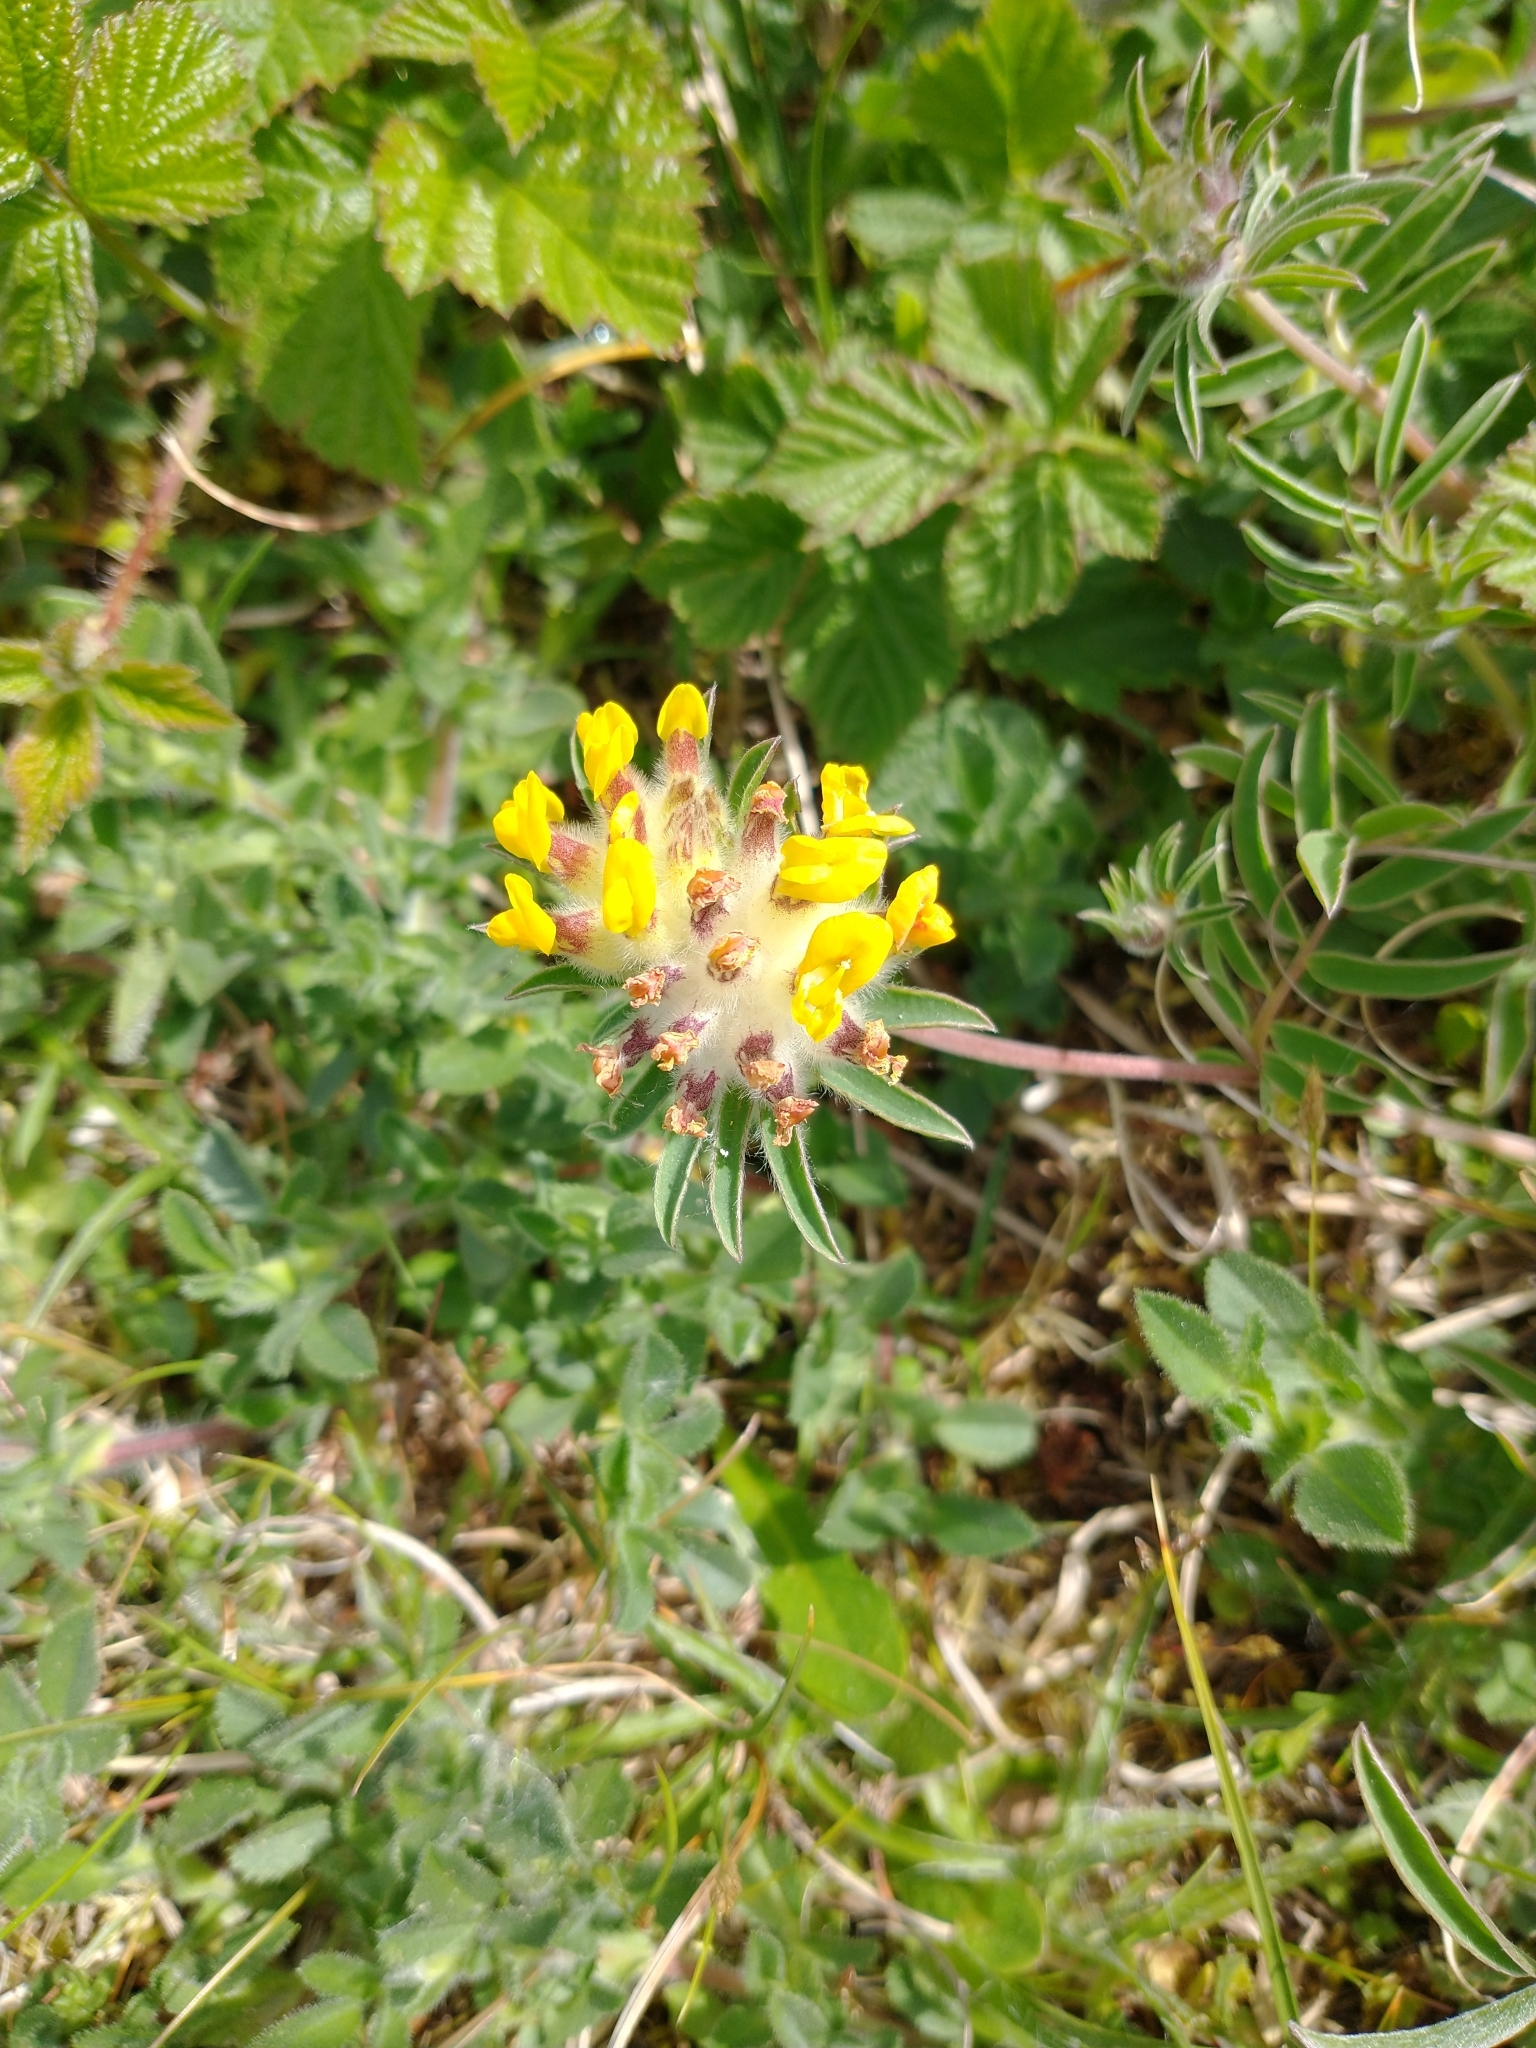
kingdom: Plantae
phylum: Tracheophyta
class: Magnoliopsida
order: Fabales
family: Fabaceae
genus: Anthyllis
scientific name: Anthyllis vulneraria
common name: Kidney vetch
